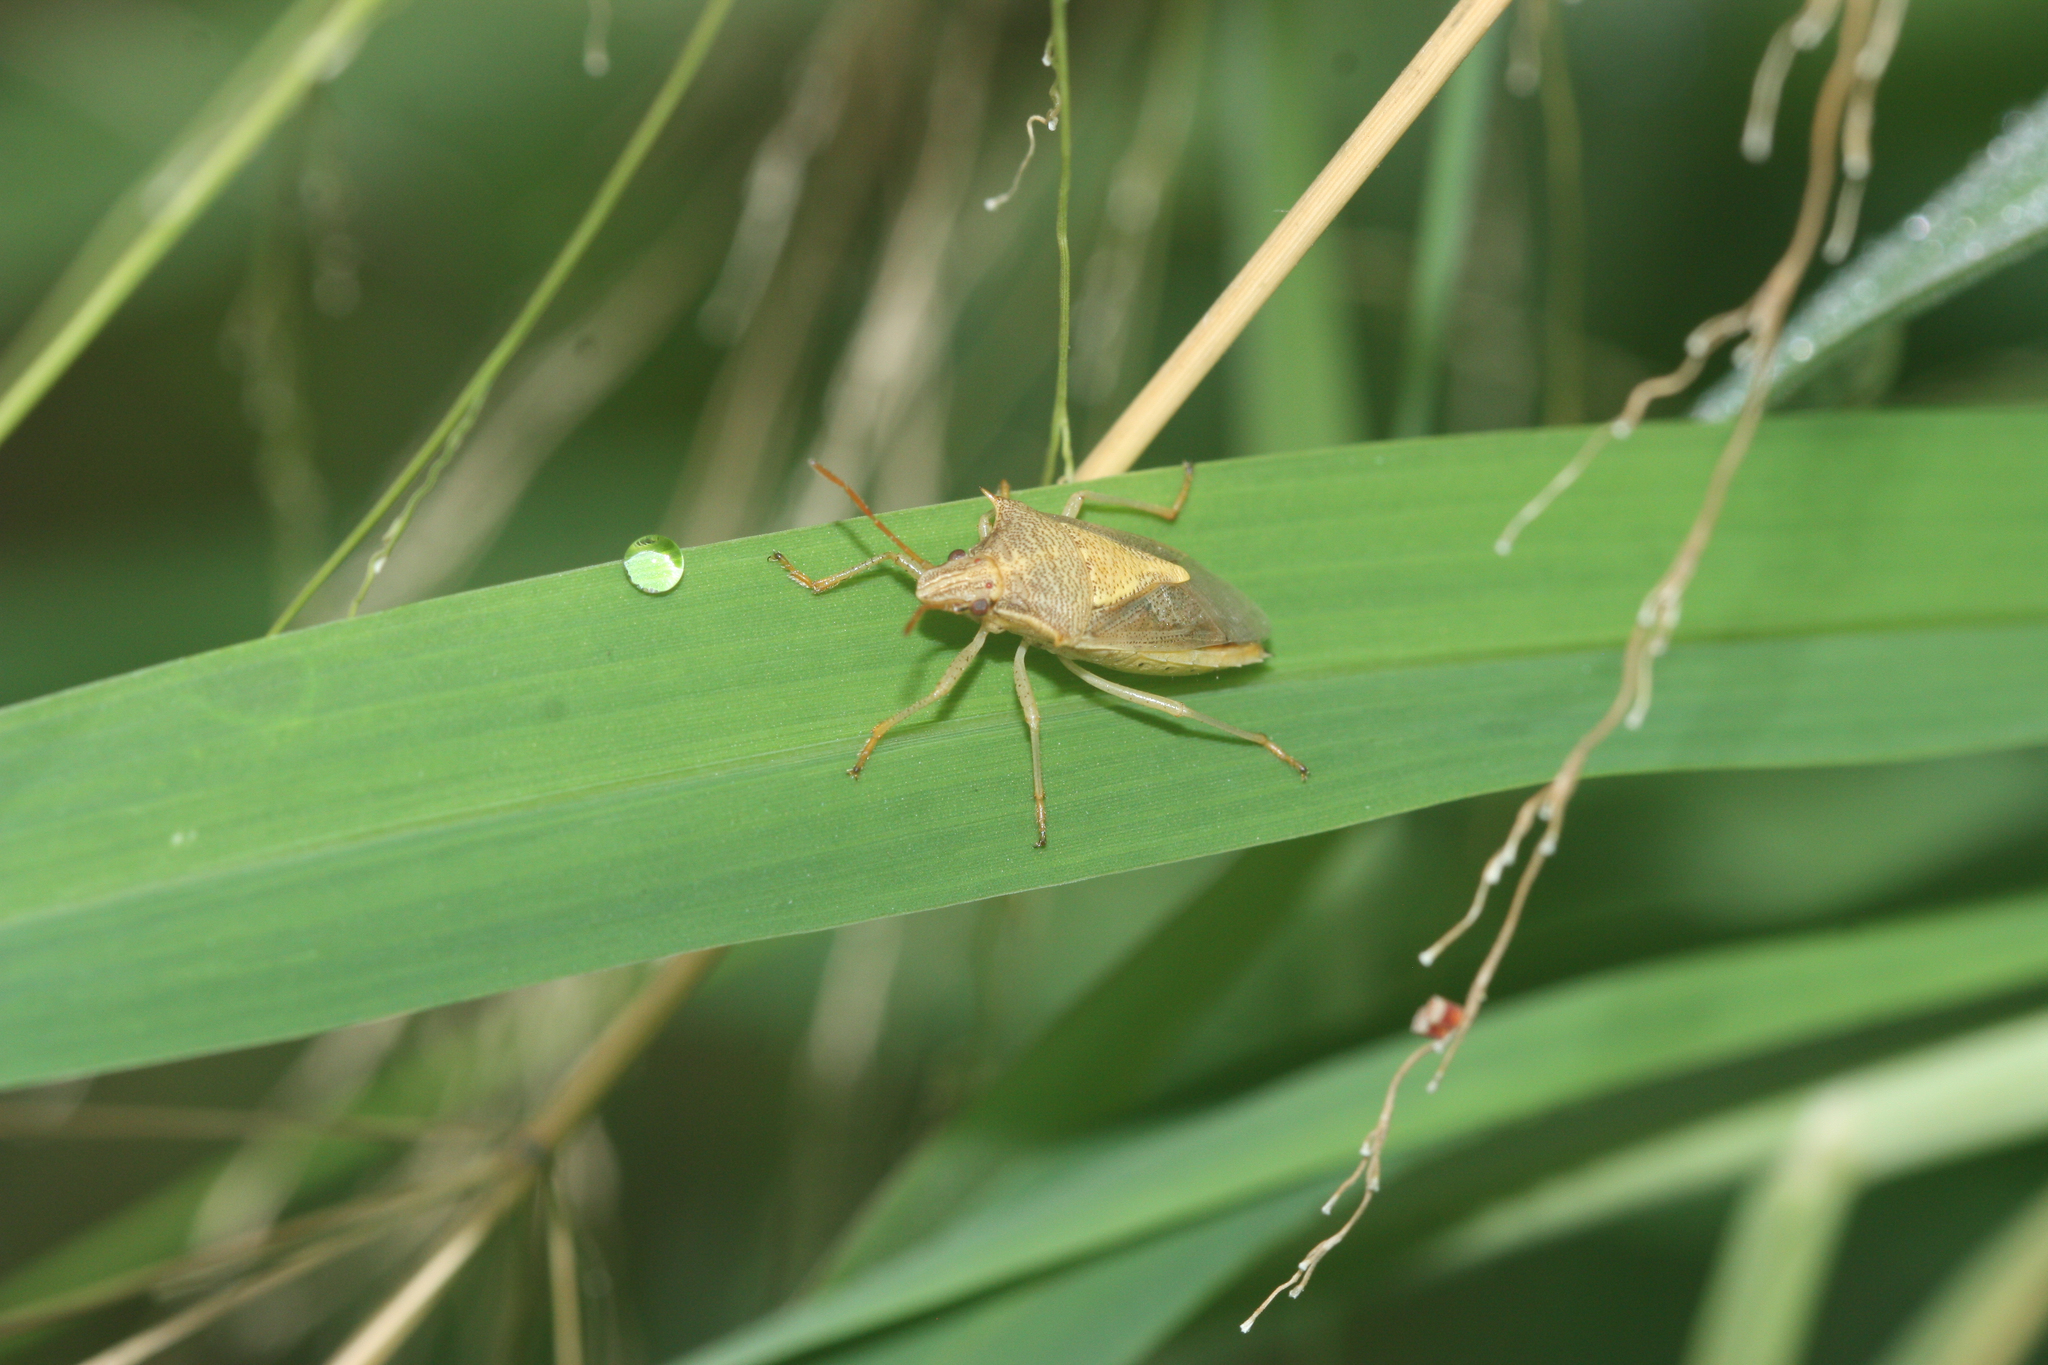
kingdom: Animalia
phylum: Arthropoda
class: Insecta
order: Hemiptera
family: Pentatomidae
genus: Oebalus
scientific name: Oebalus pugnax
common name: Rice stink bug
